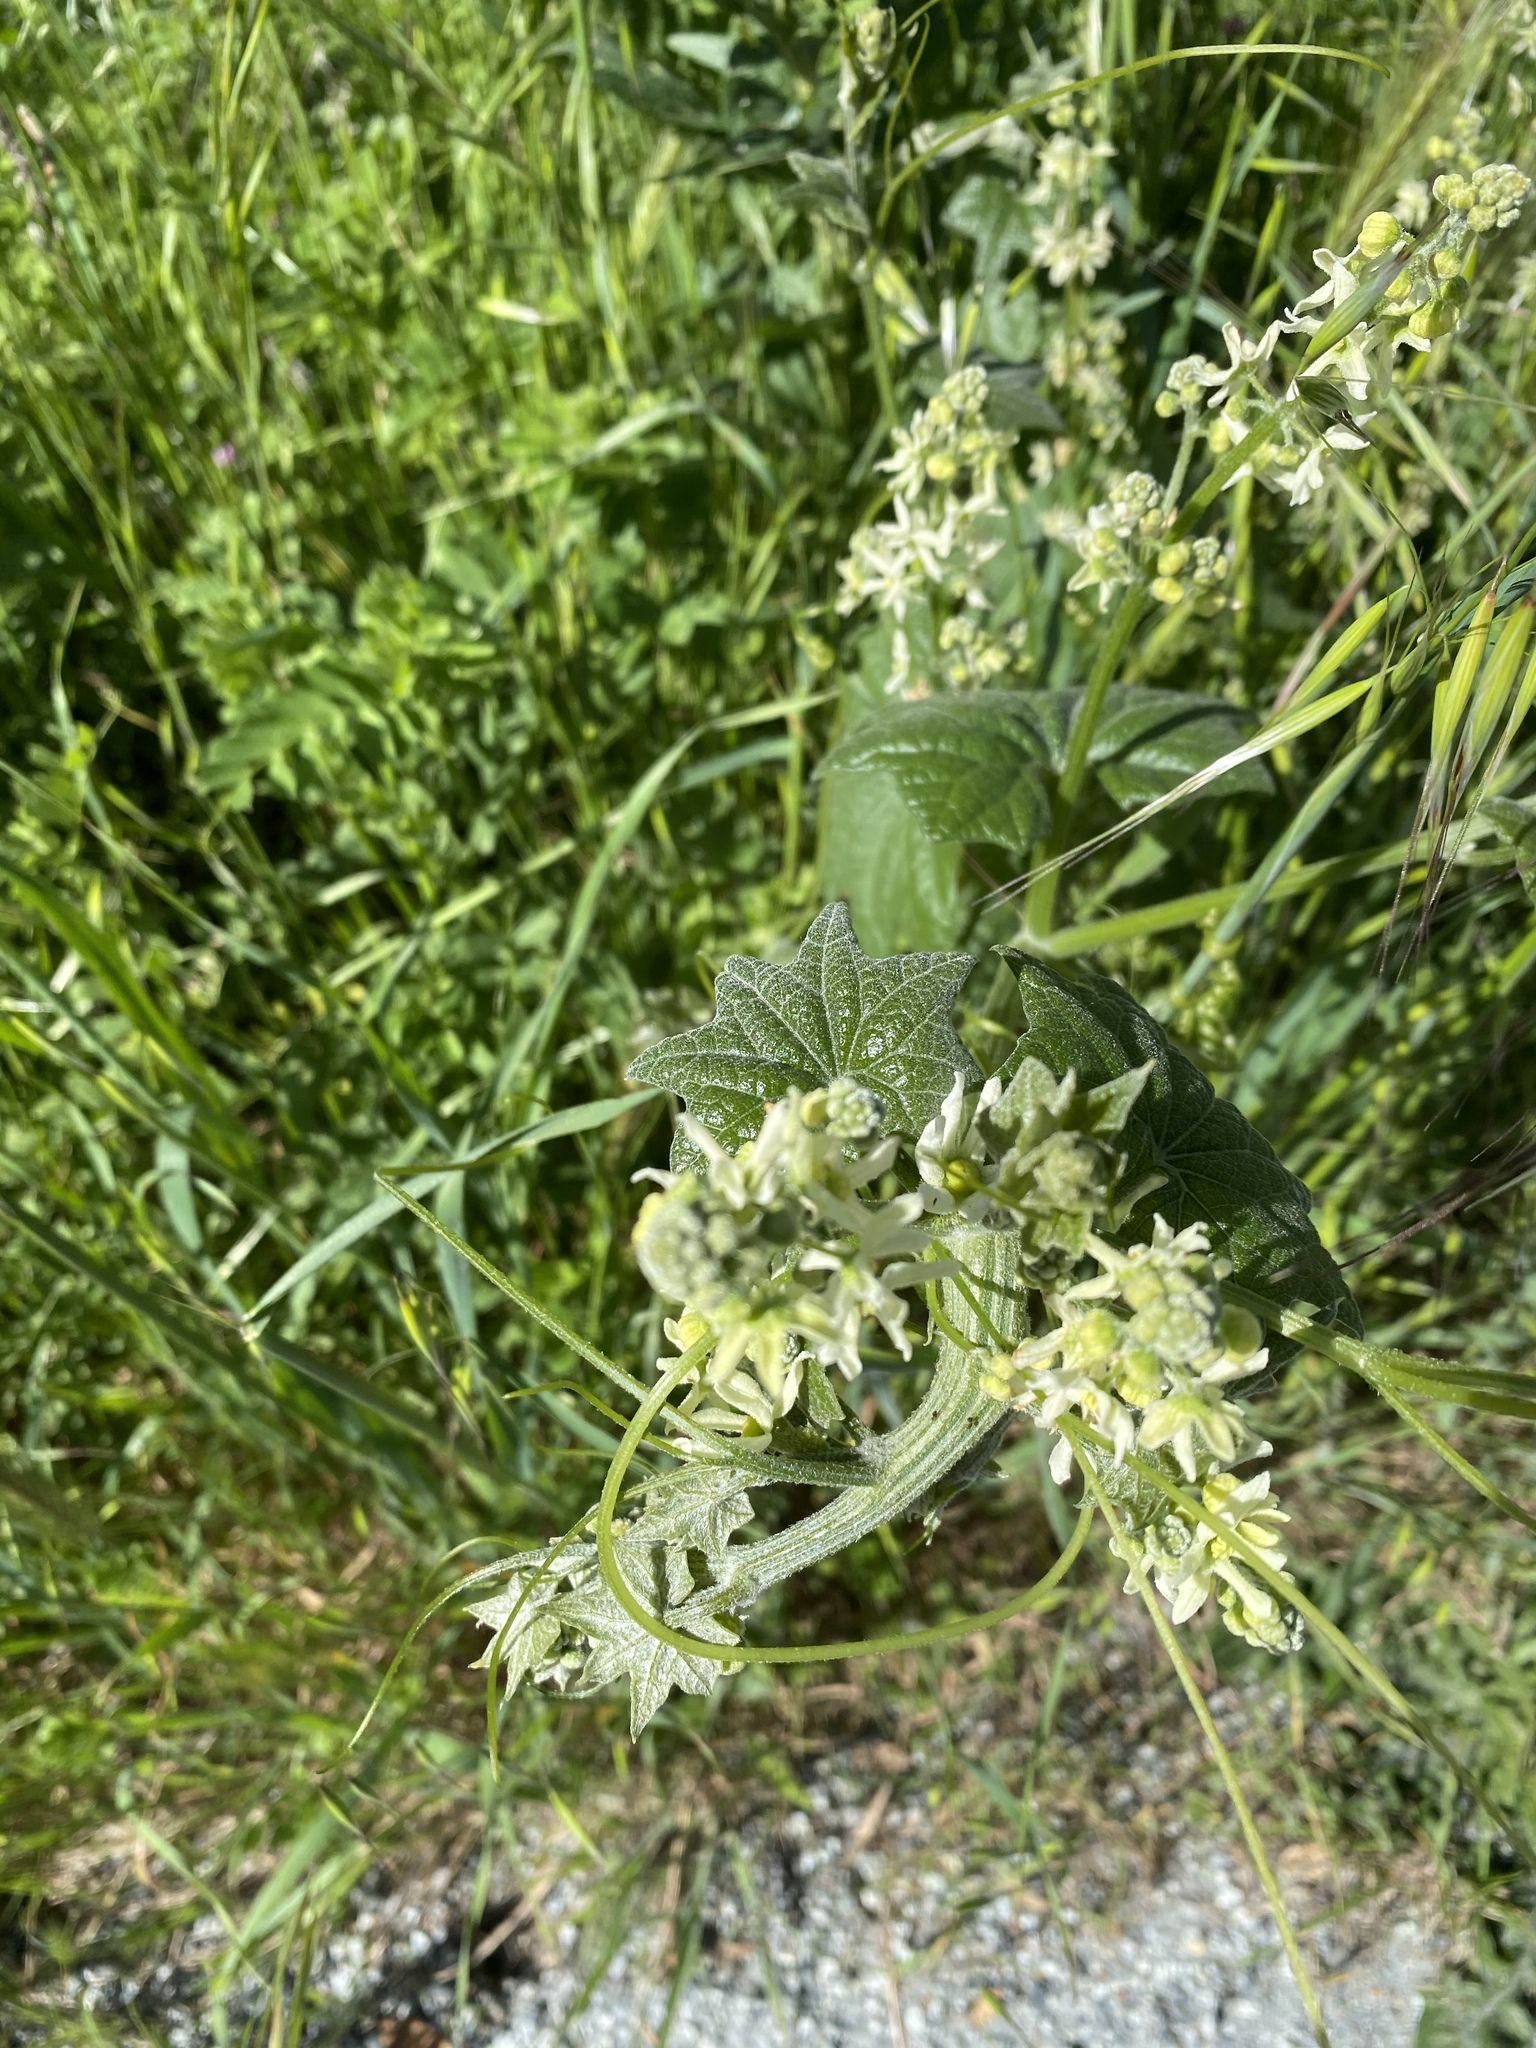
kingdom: Plantae
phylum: Tracheophyta
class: Magnoliopsida
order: Cucurbitales
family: Cucurbitaceae
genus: Marah
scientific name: Marah fabacea
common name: California manroot
